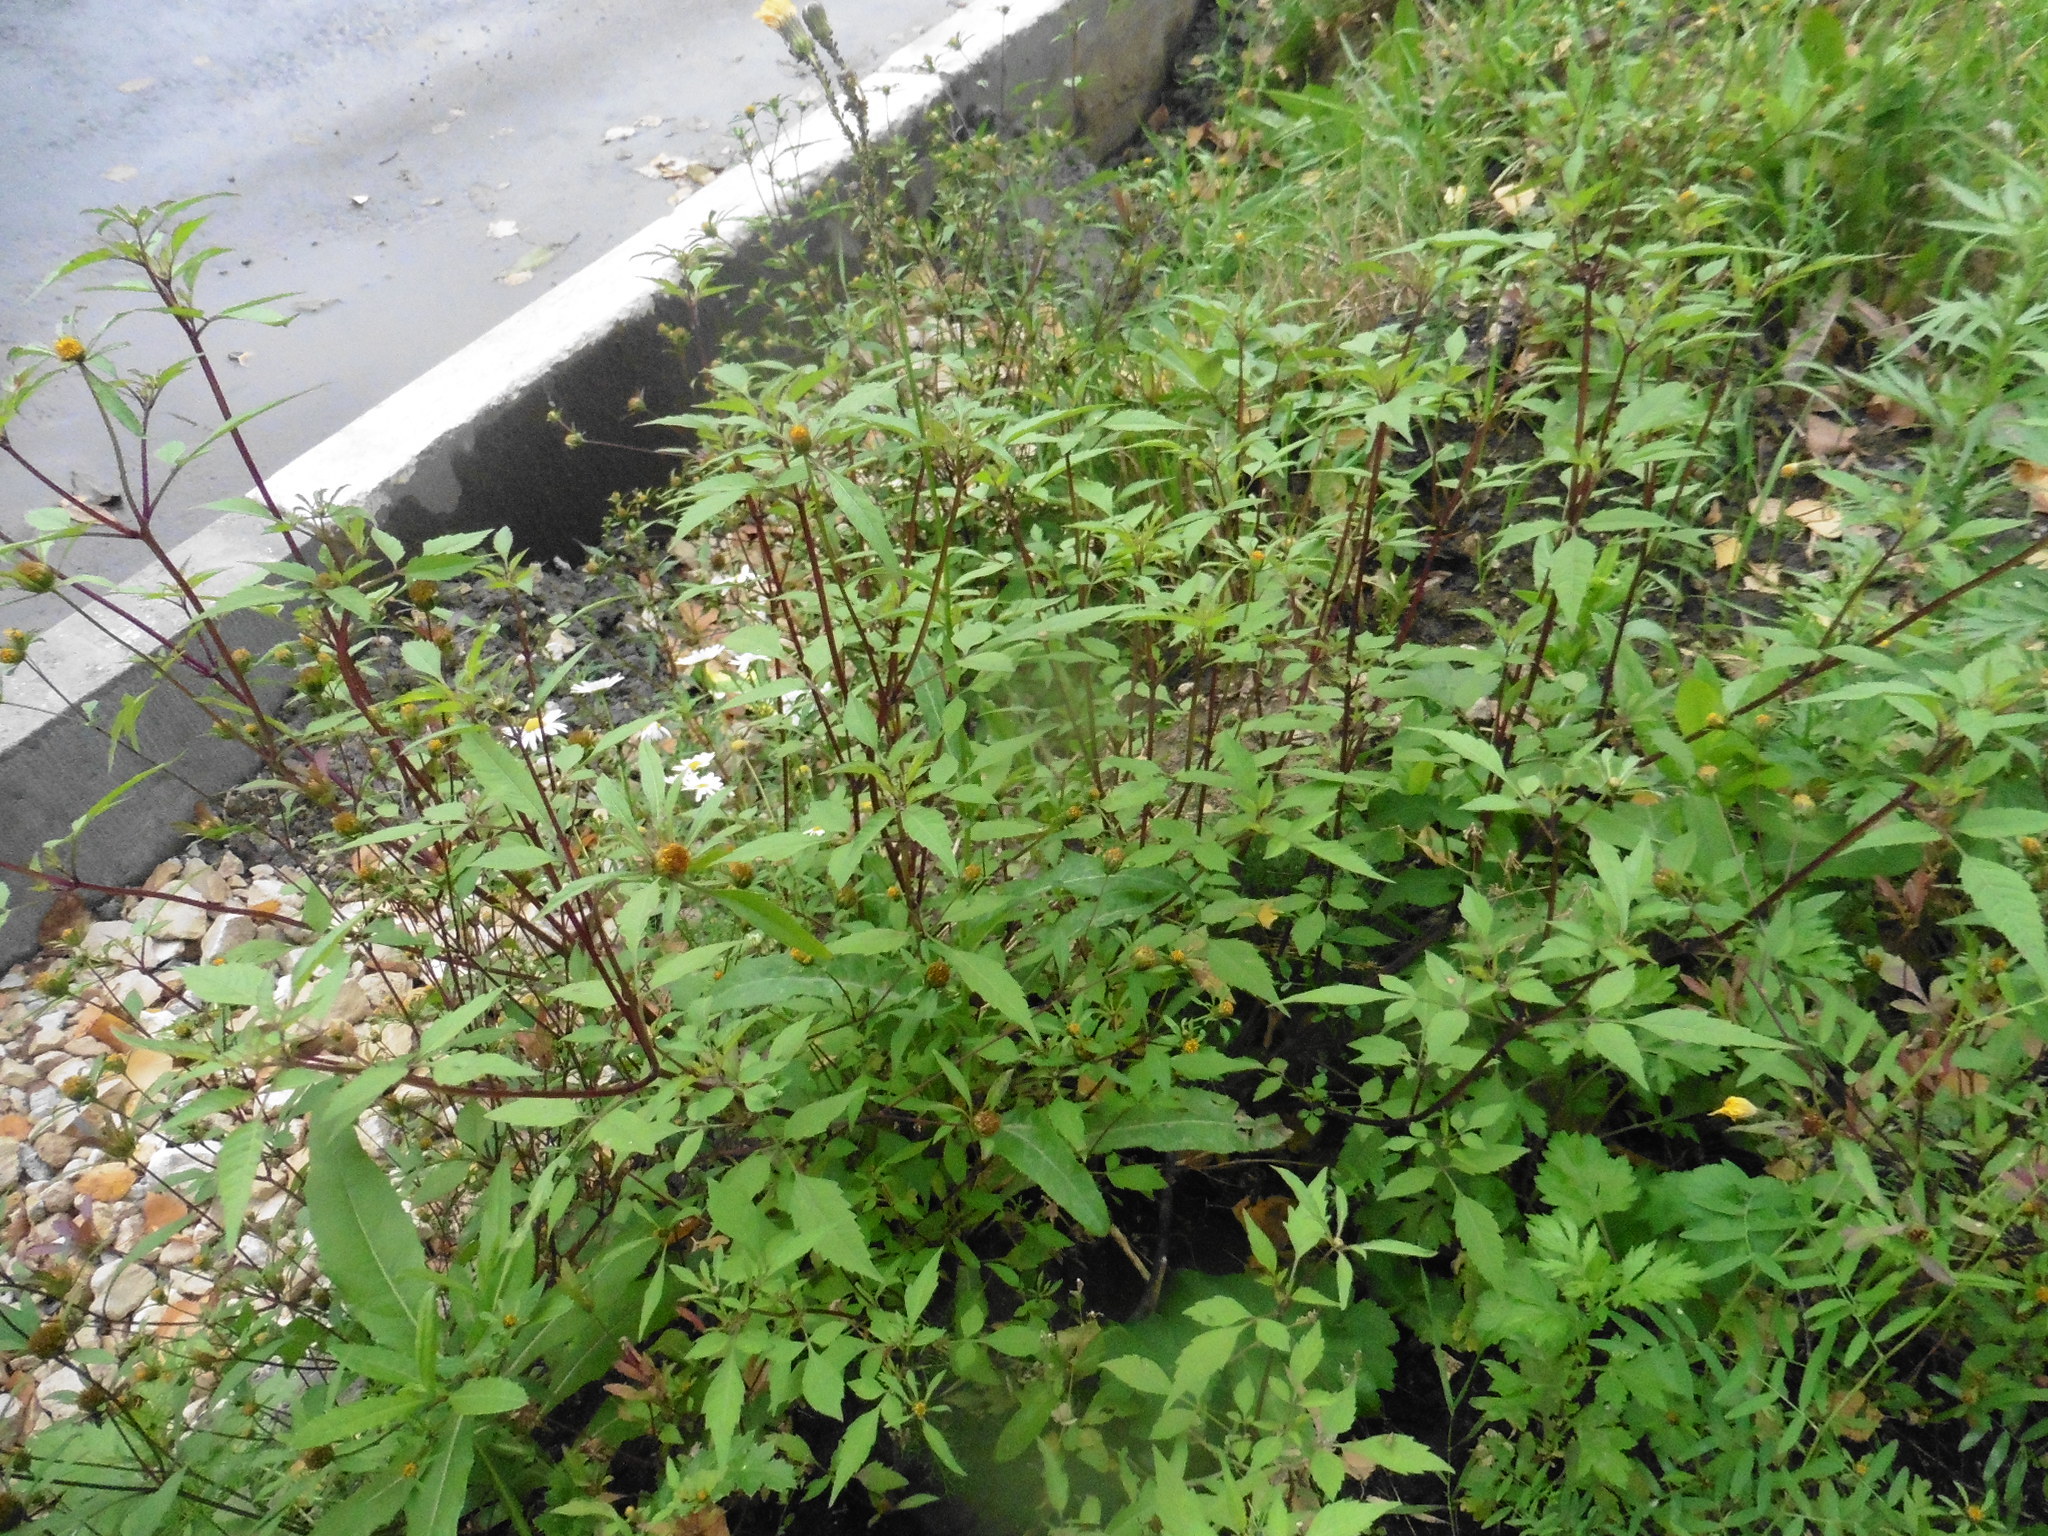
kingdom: Plantae
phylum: Tracheophyta
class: Magnoliopsida
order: Asterales
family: Asteraceae
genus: Bidens
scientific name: Bidens frondosa
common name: Beggarticks
